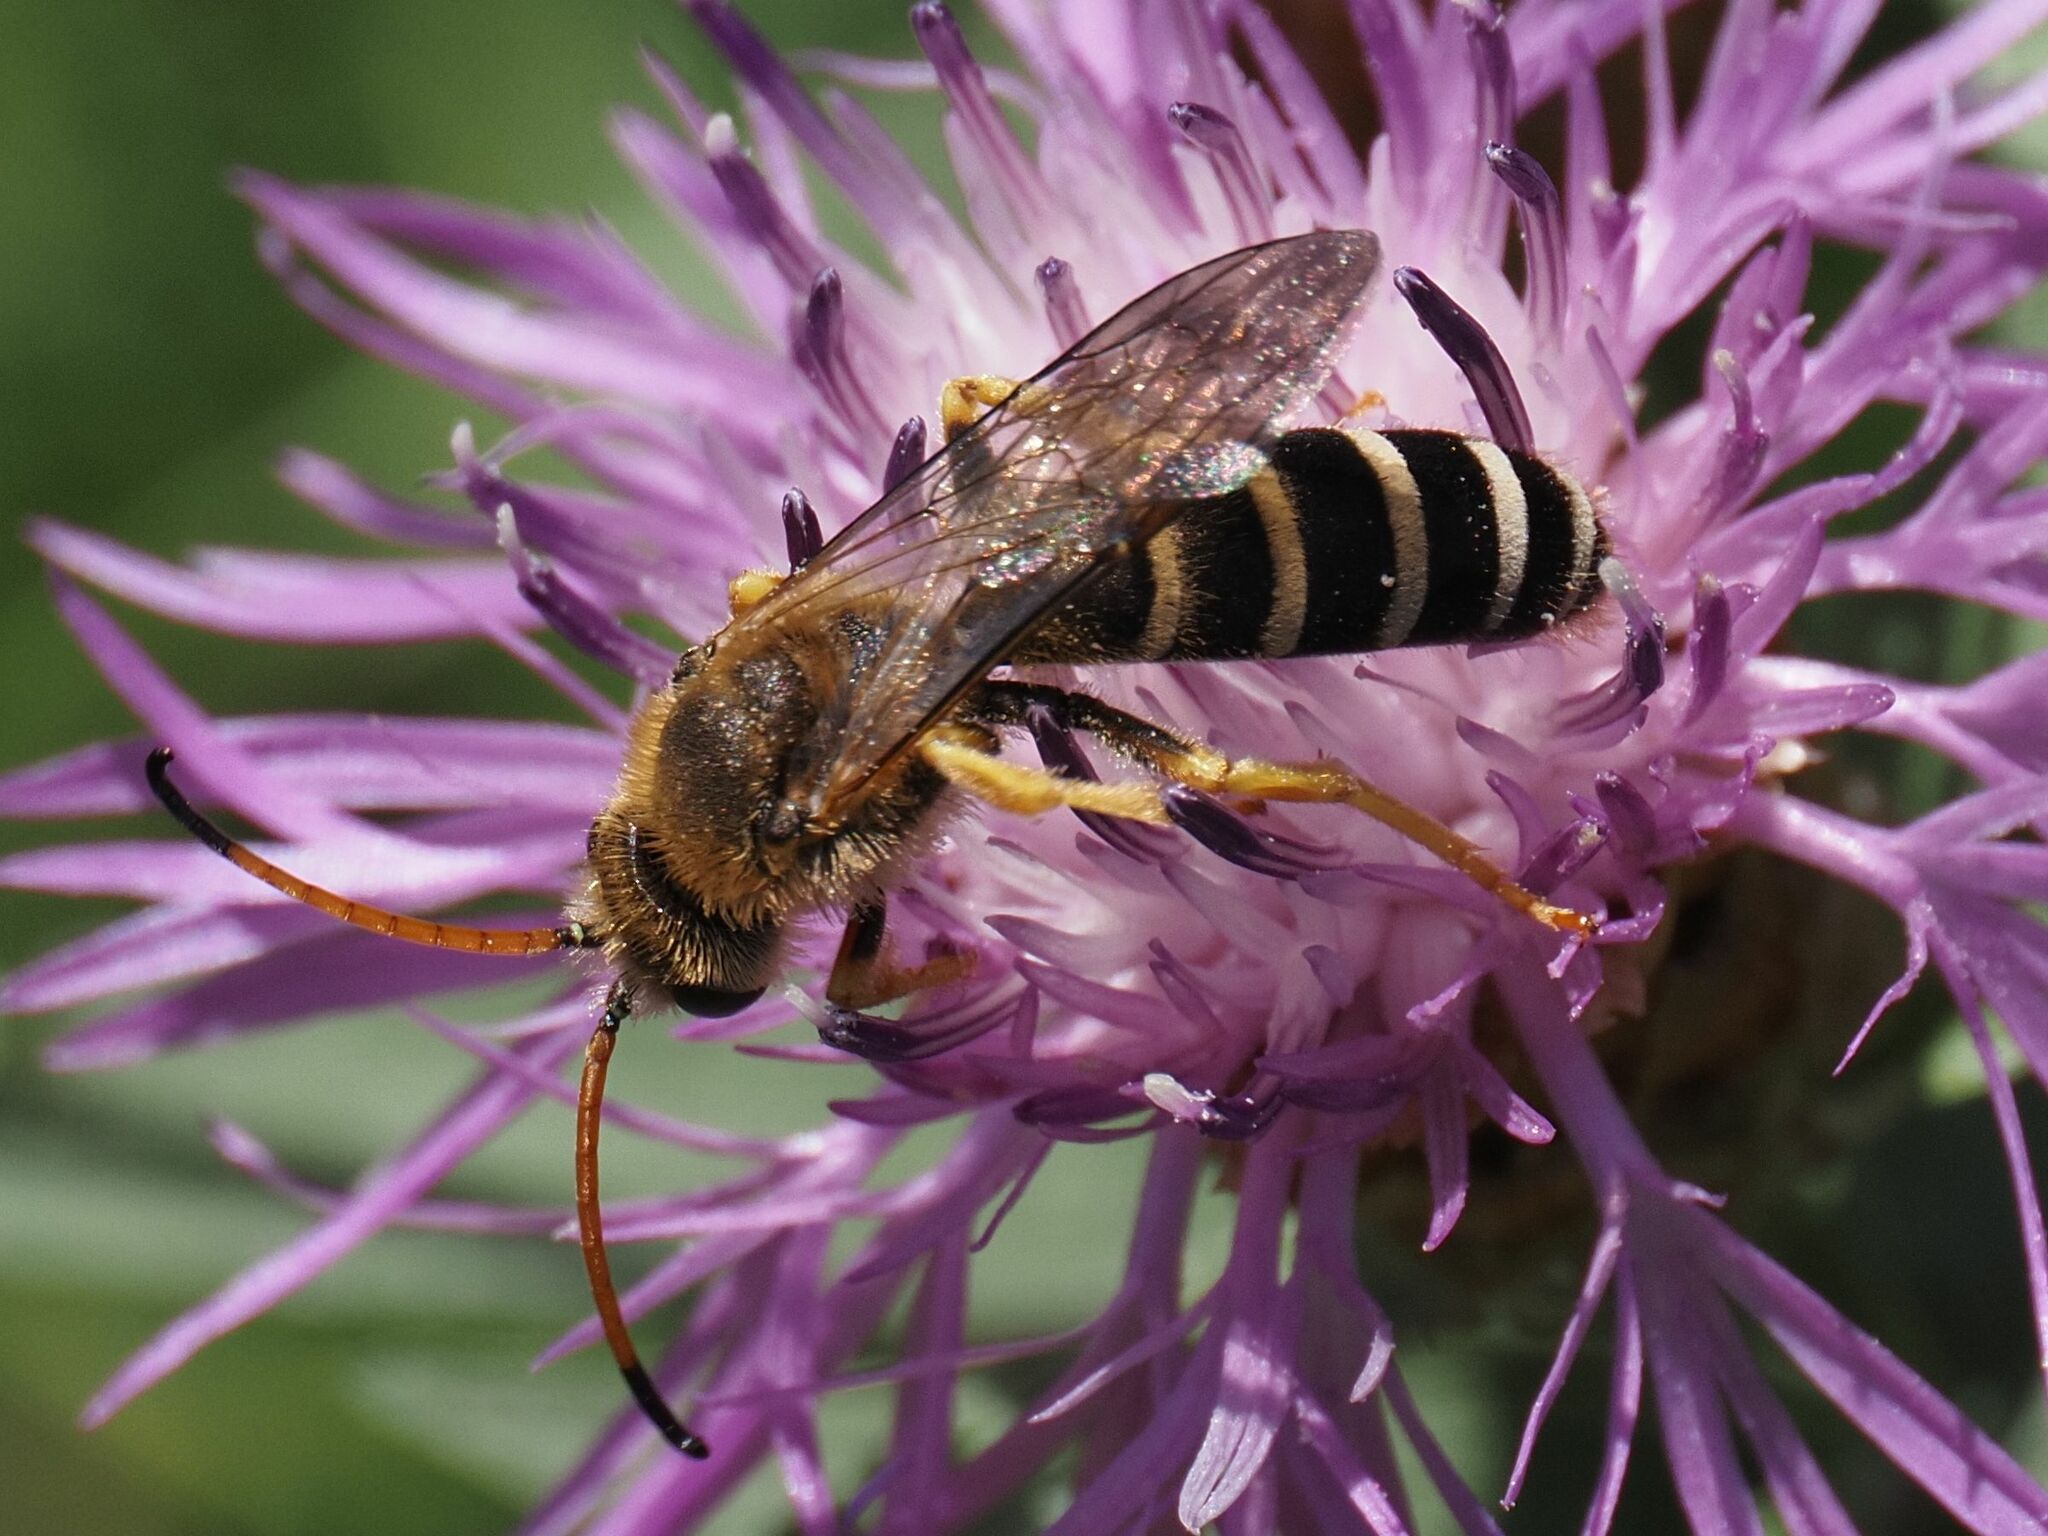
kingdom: Animalia
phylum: Arthropoda
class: Insecta
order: Hymenoptera
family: Halictidae
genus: Halictus
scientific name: Halictus sexcinctus
